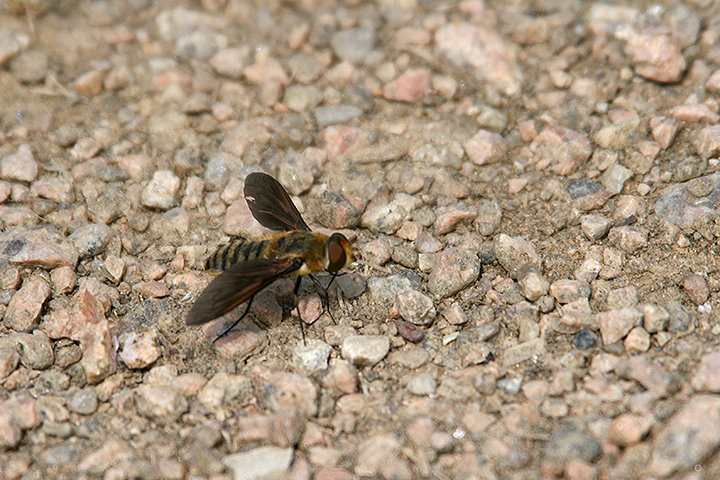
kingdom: Animalia
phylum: Arthropoda
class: Insecta
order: Diptera
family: Bombyliidae
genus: Poecilanthrax
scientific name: Poecilanthrax lucifer
